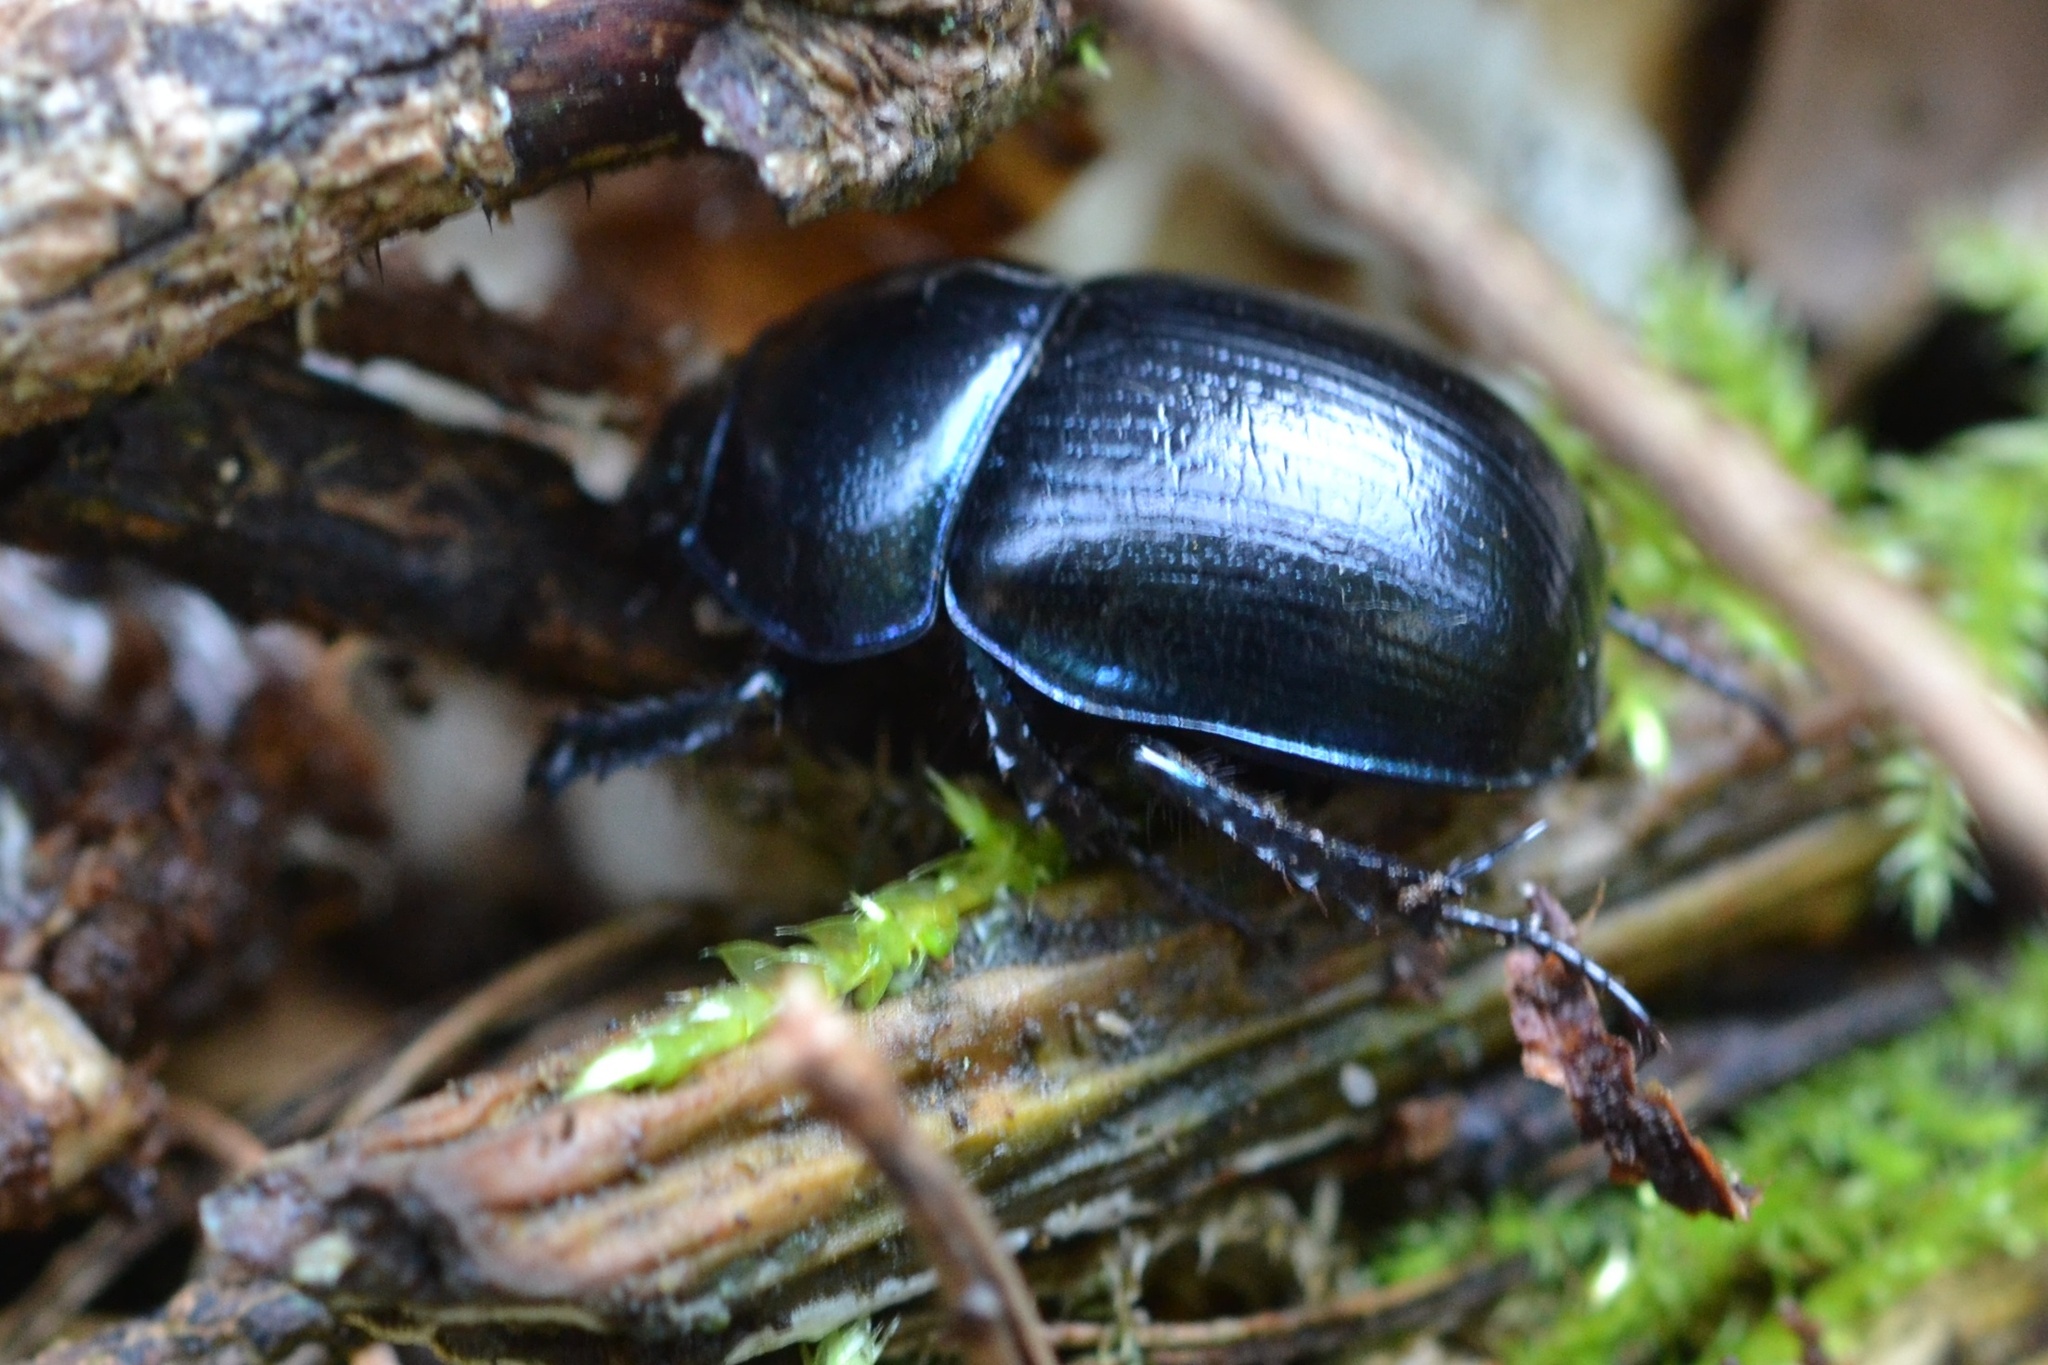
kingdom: Animalia
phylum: Arthropoda
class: Insecta
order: Coleoptera
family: Geotrupidae
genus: Anoplotrupes
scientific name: Anoplotrupes stercorosus
